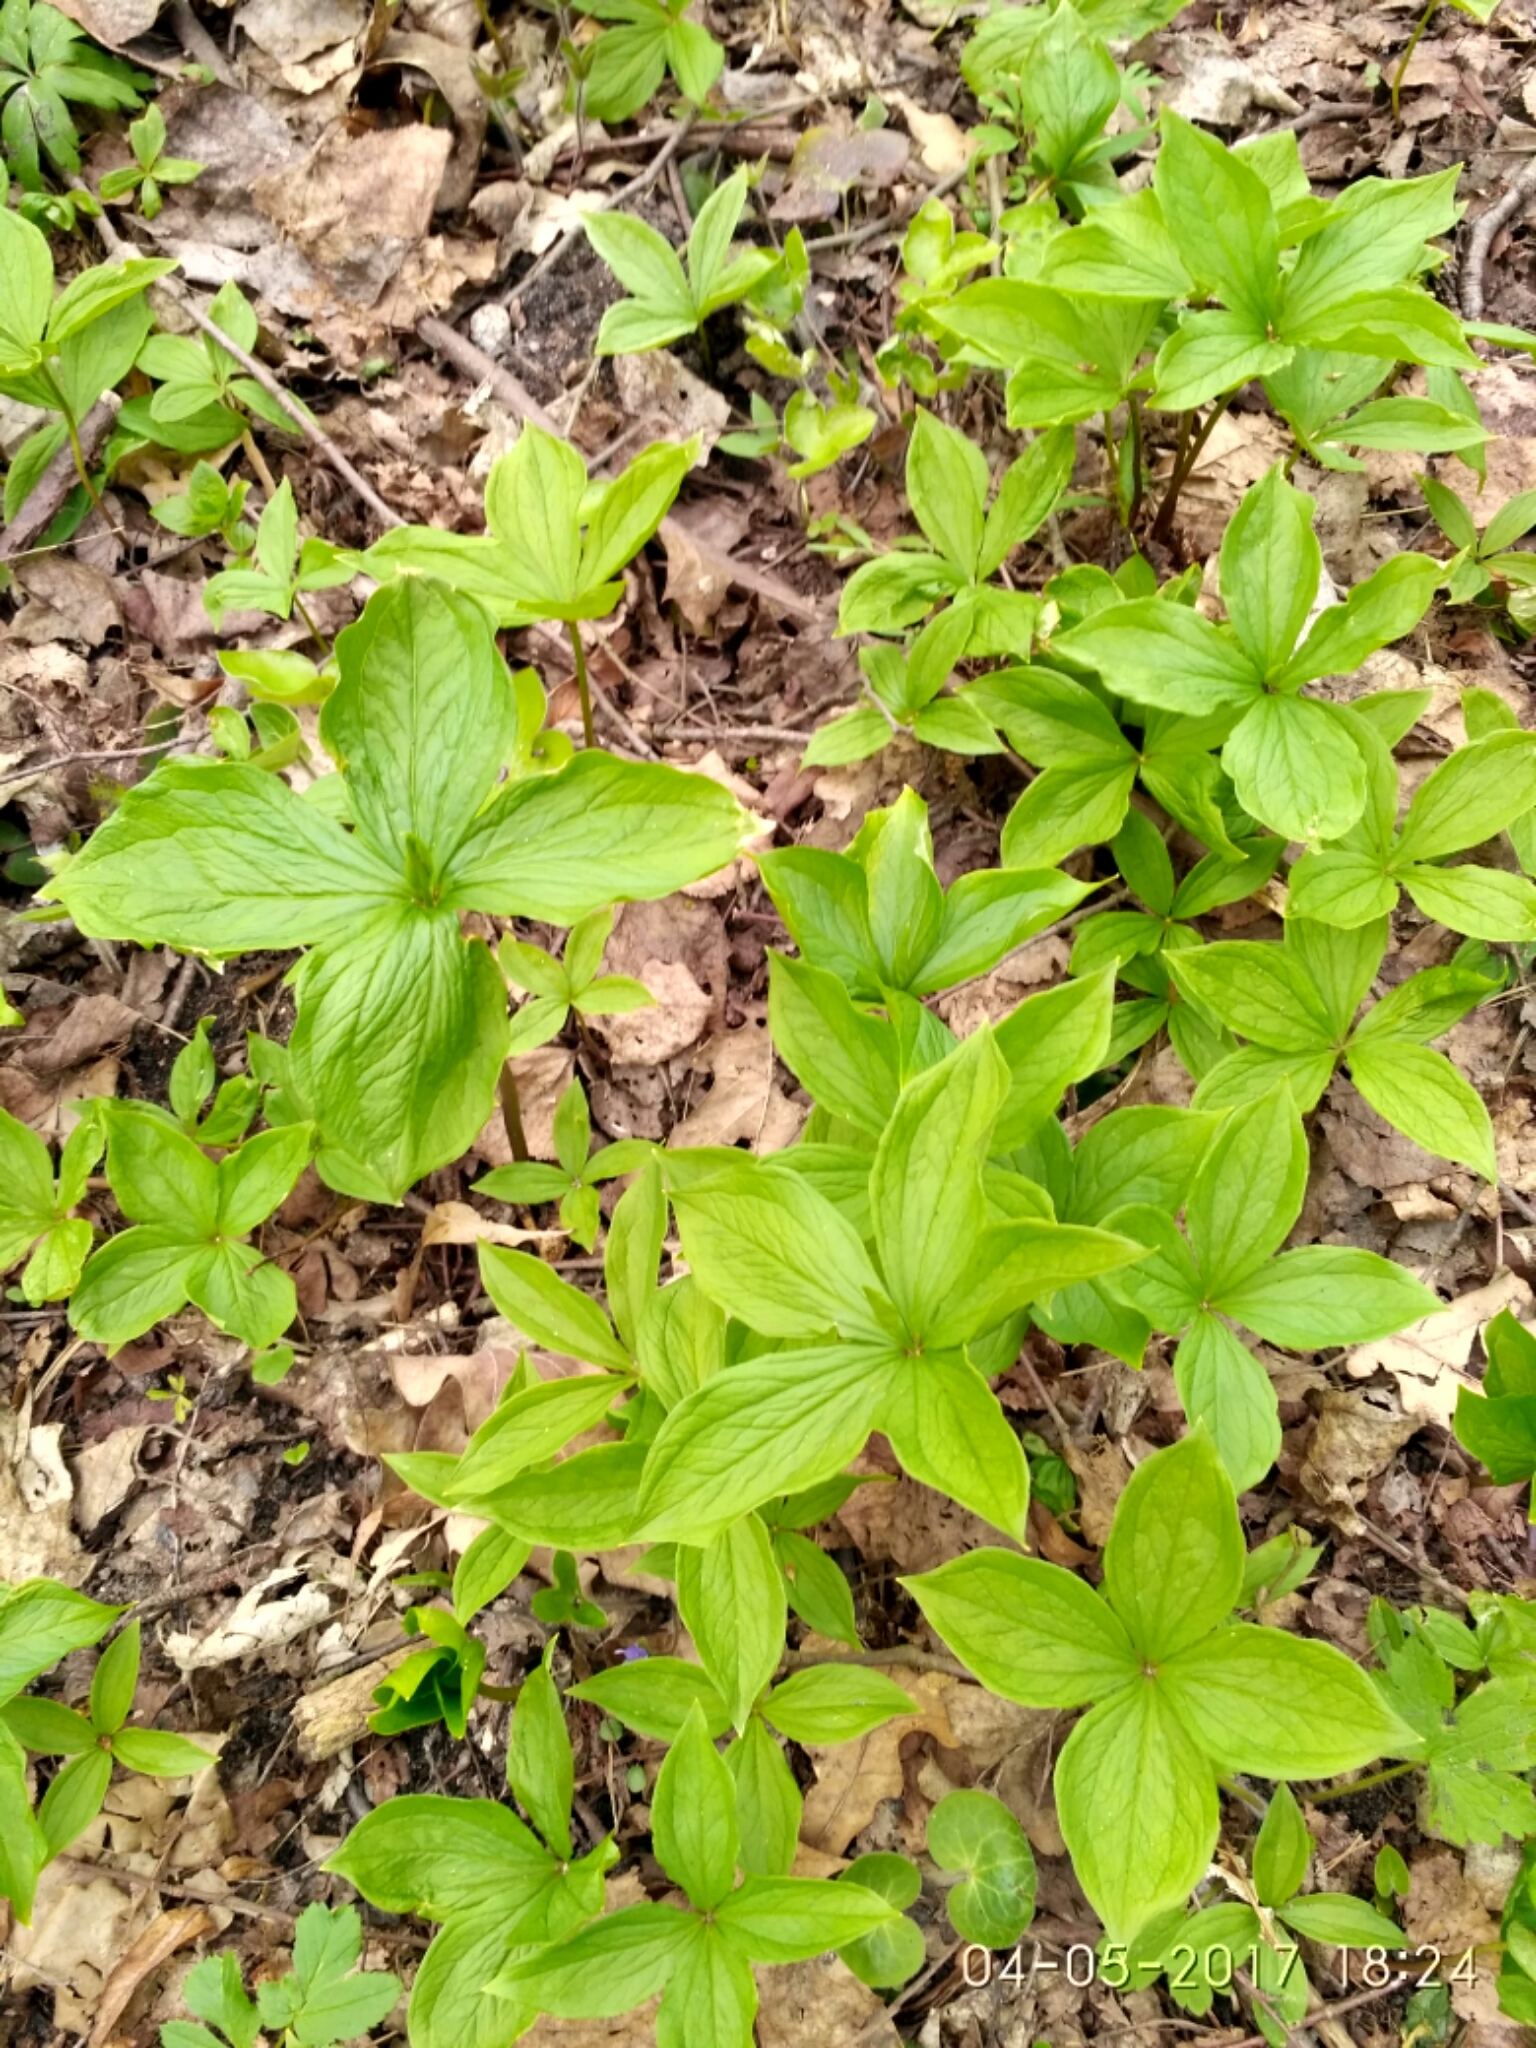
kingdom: Plantae
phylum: Tracheophyta
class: Liliopsida
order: Liliales
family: Melanthiaceae
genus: Paris
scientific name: Paris quadrifolia
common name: Herb-paris
